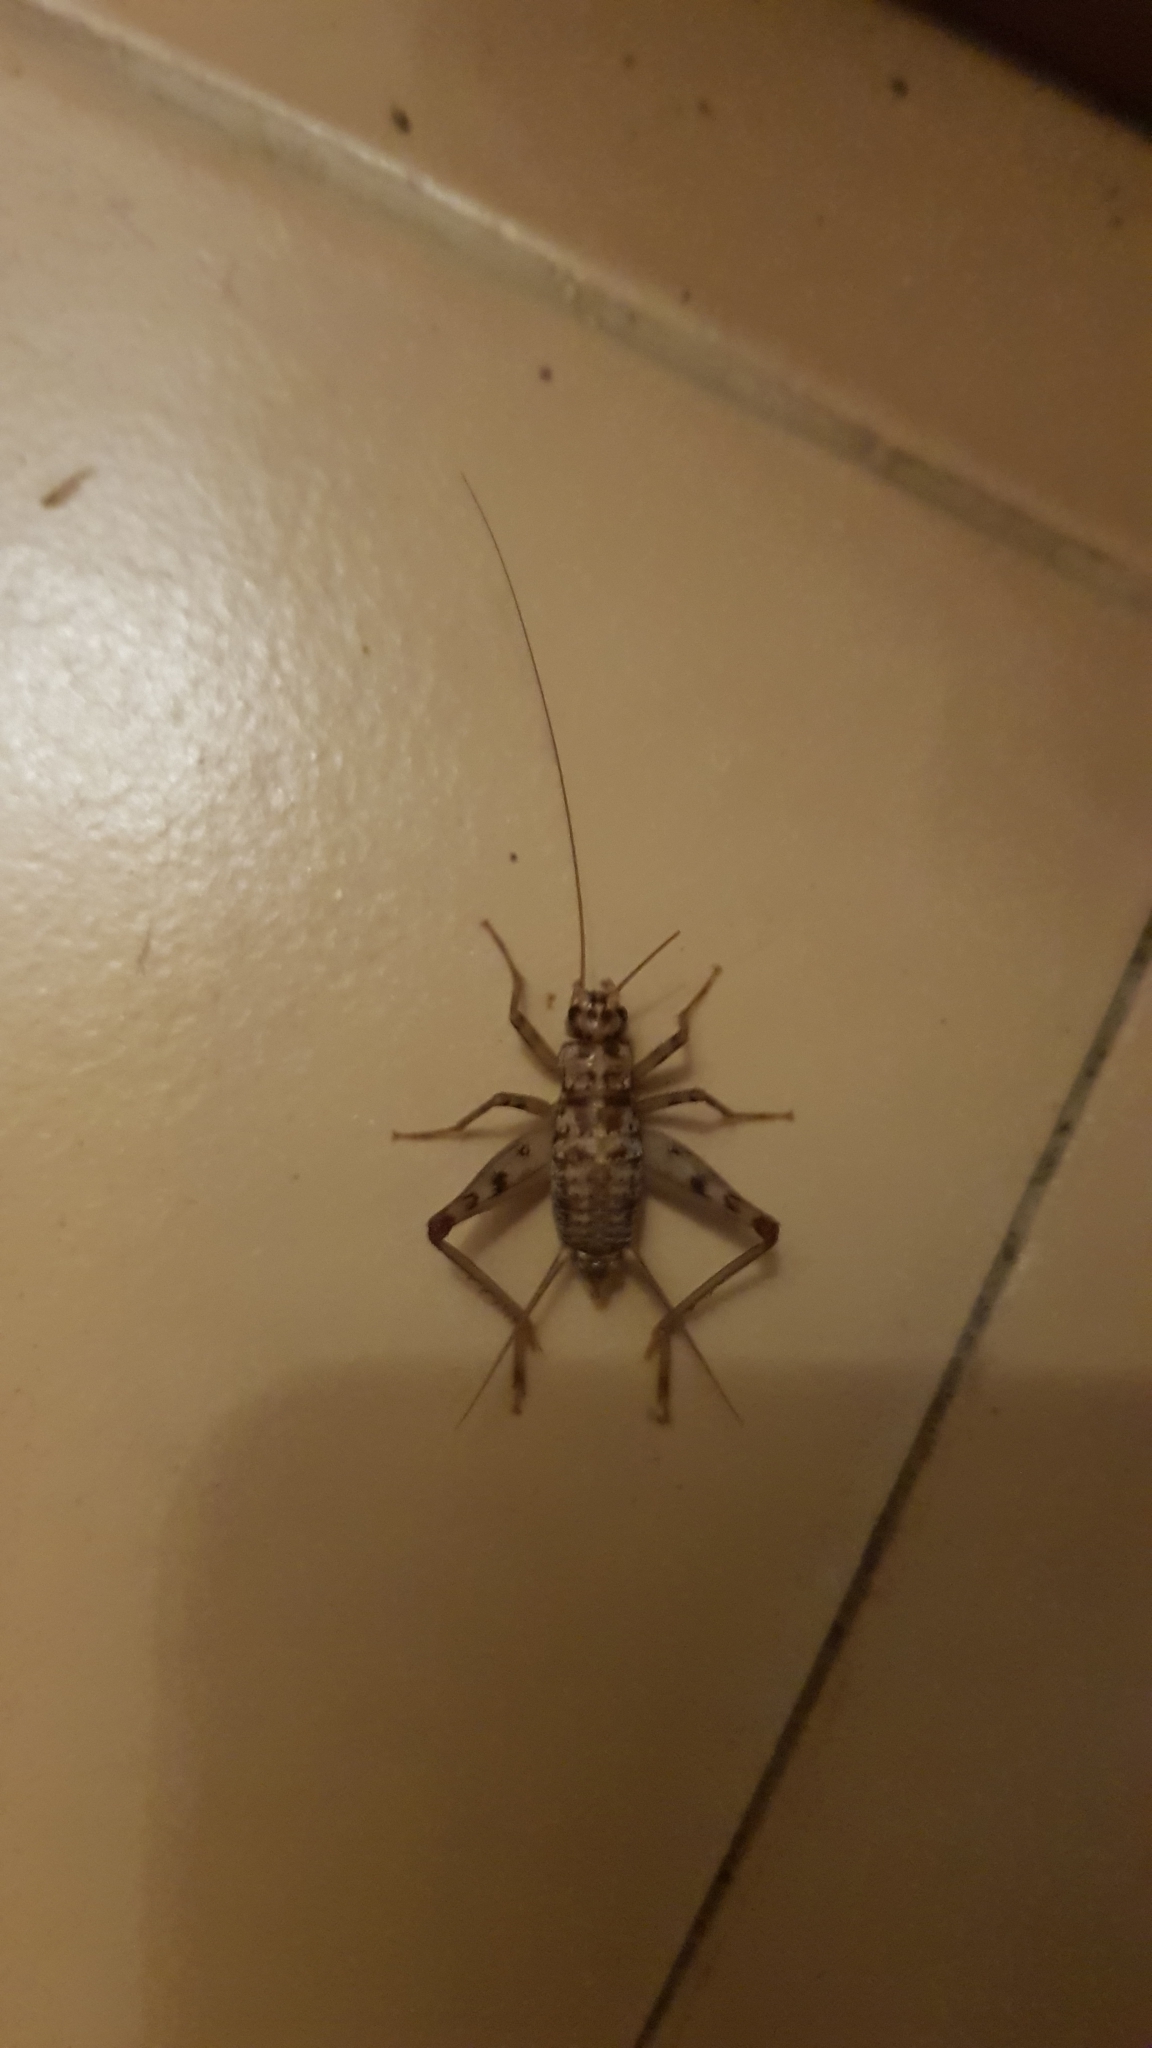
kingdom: Animalia
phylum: Arthropoda
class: Insecta
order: Orthoptera
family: Gryllidae
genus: Gryllomorpha
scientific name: Gryllomorpha dalmatina
